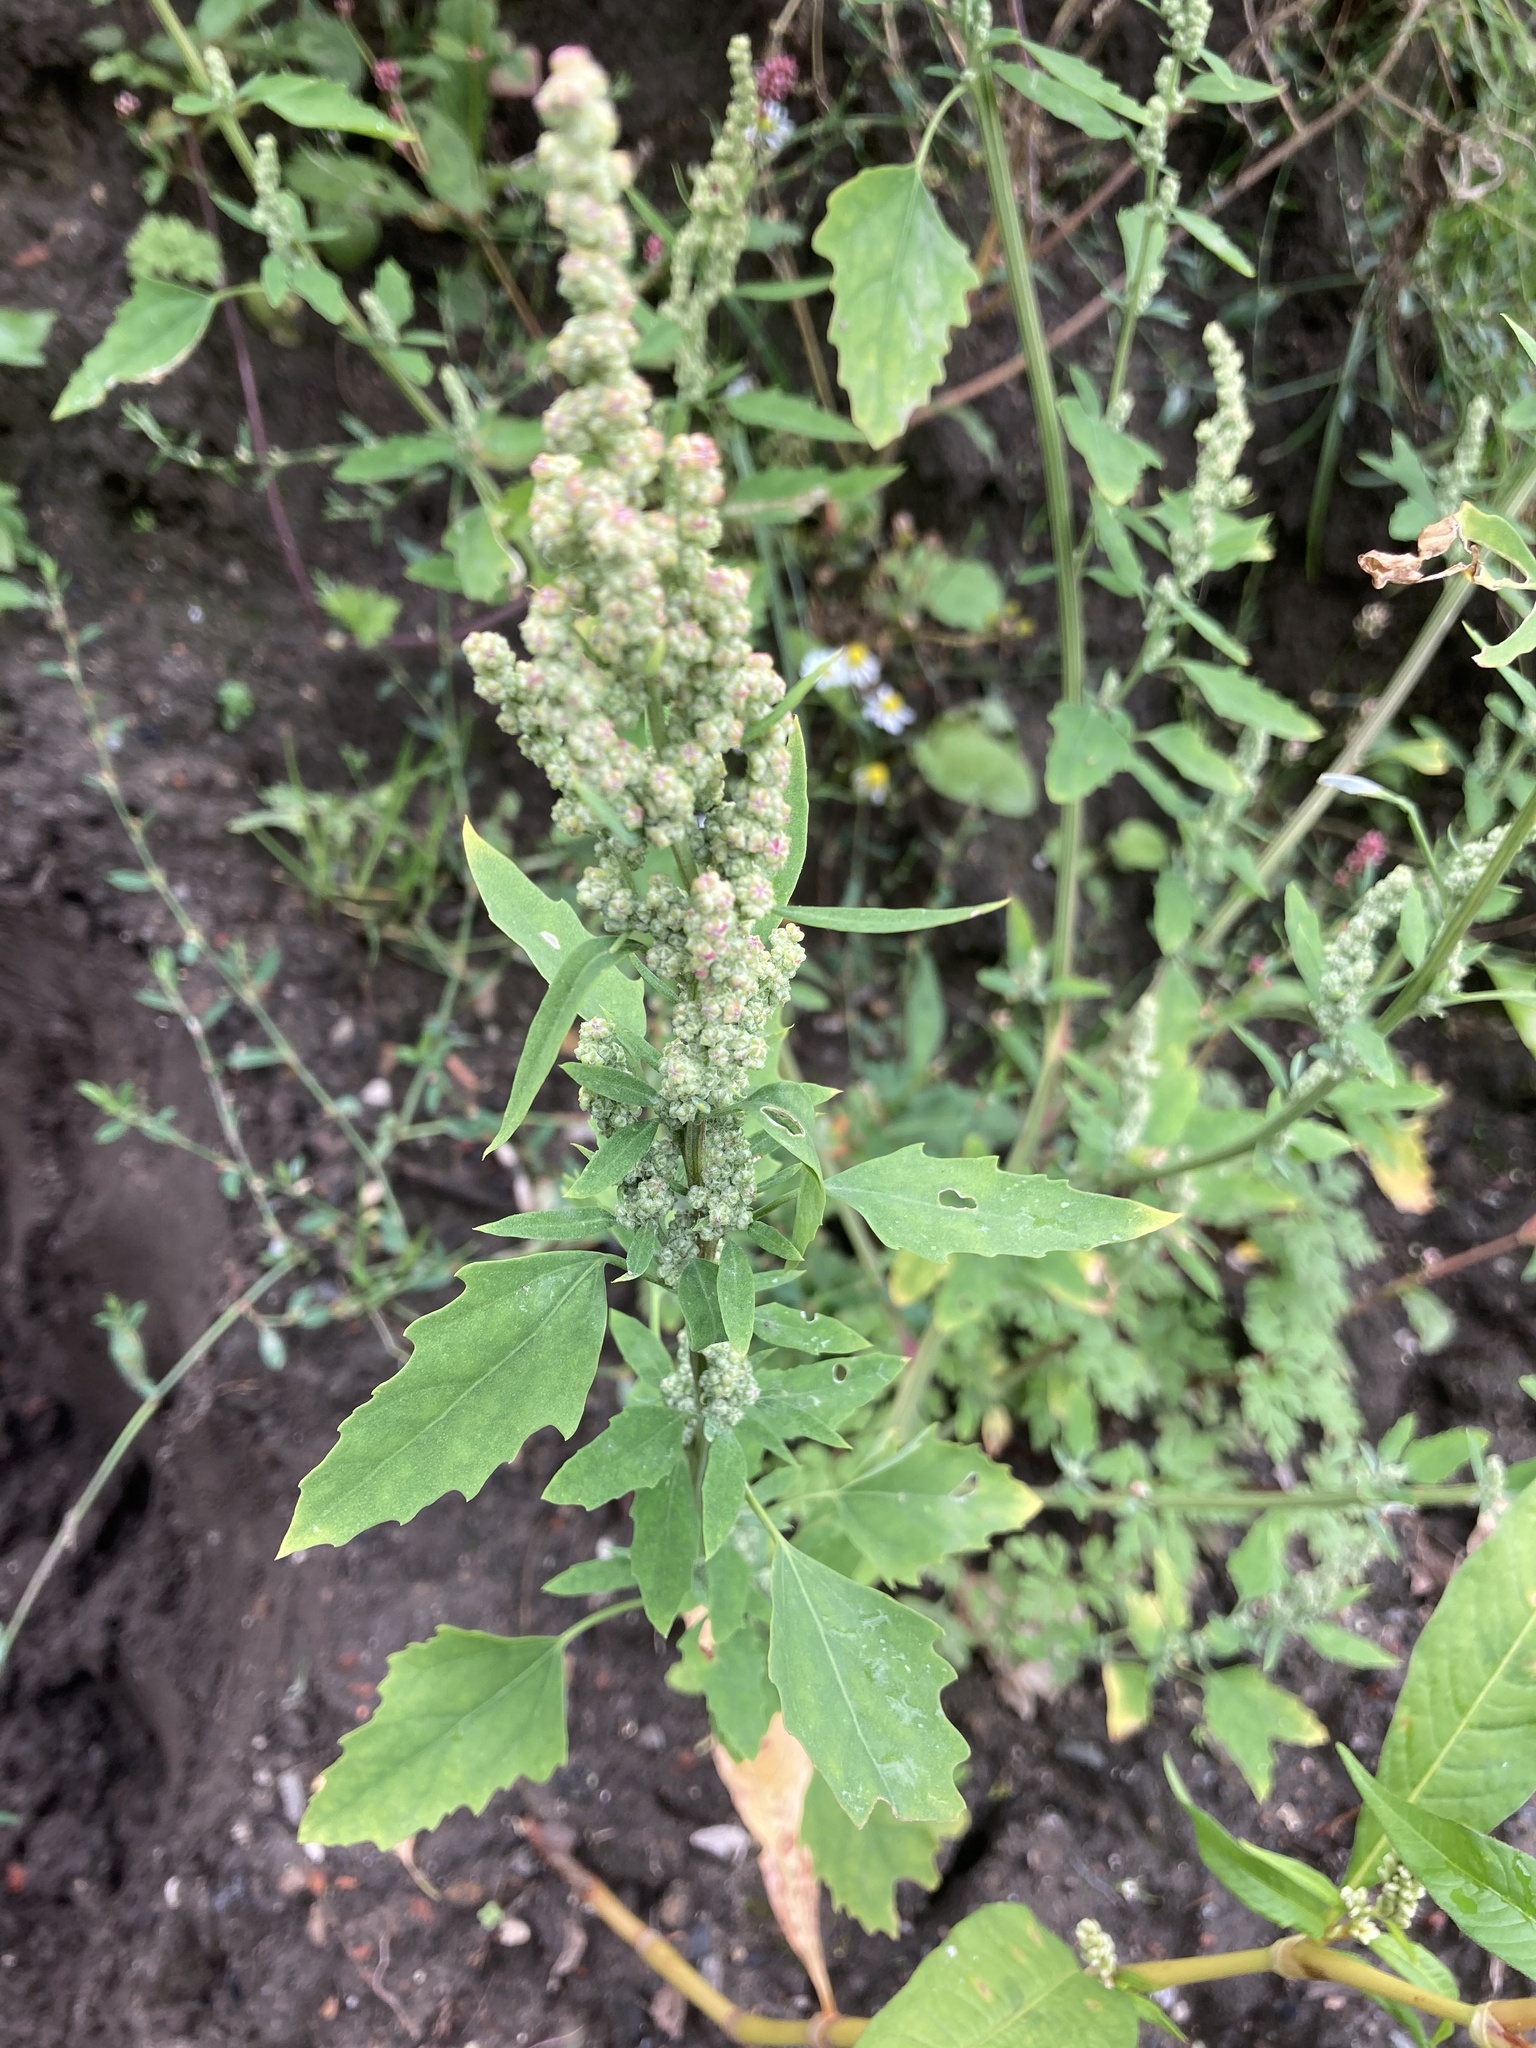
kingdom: Plantae
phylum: Tracheophyta
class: Magnoliopsida
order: Caryophyllales
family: Amaranthaceae
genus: Chenopodium
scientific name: Chenopodium album
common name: Fat-hen
